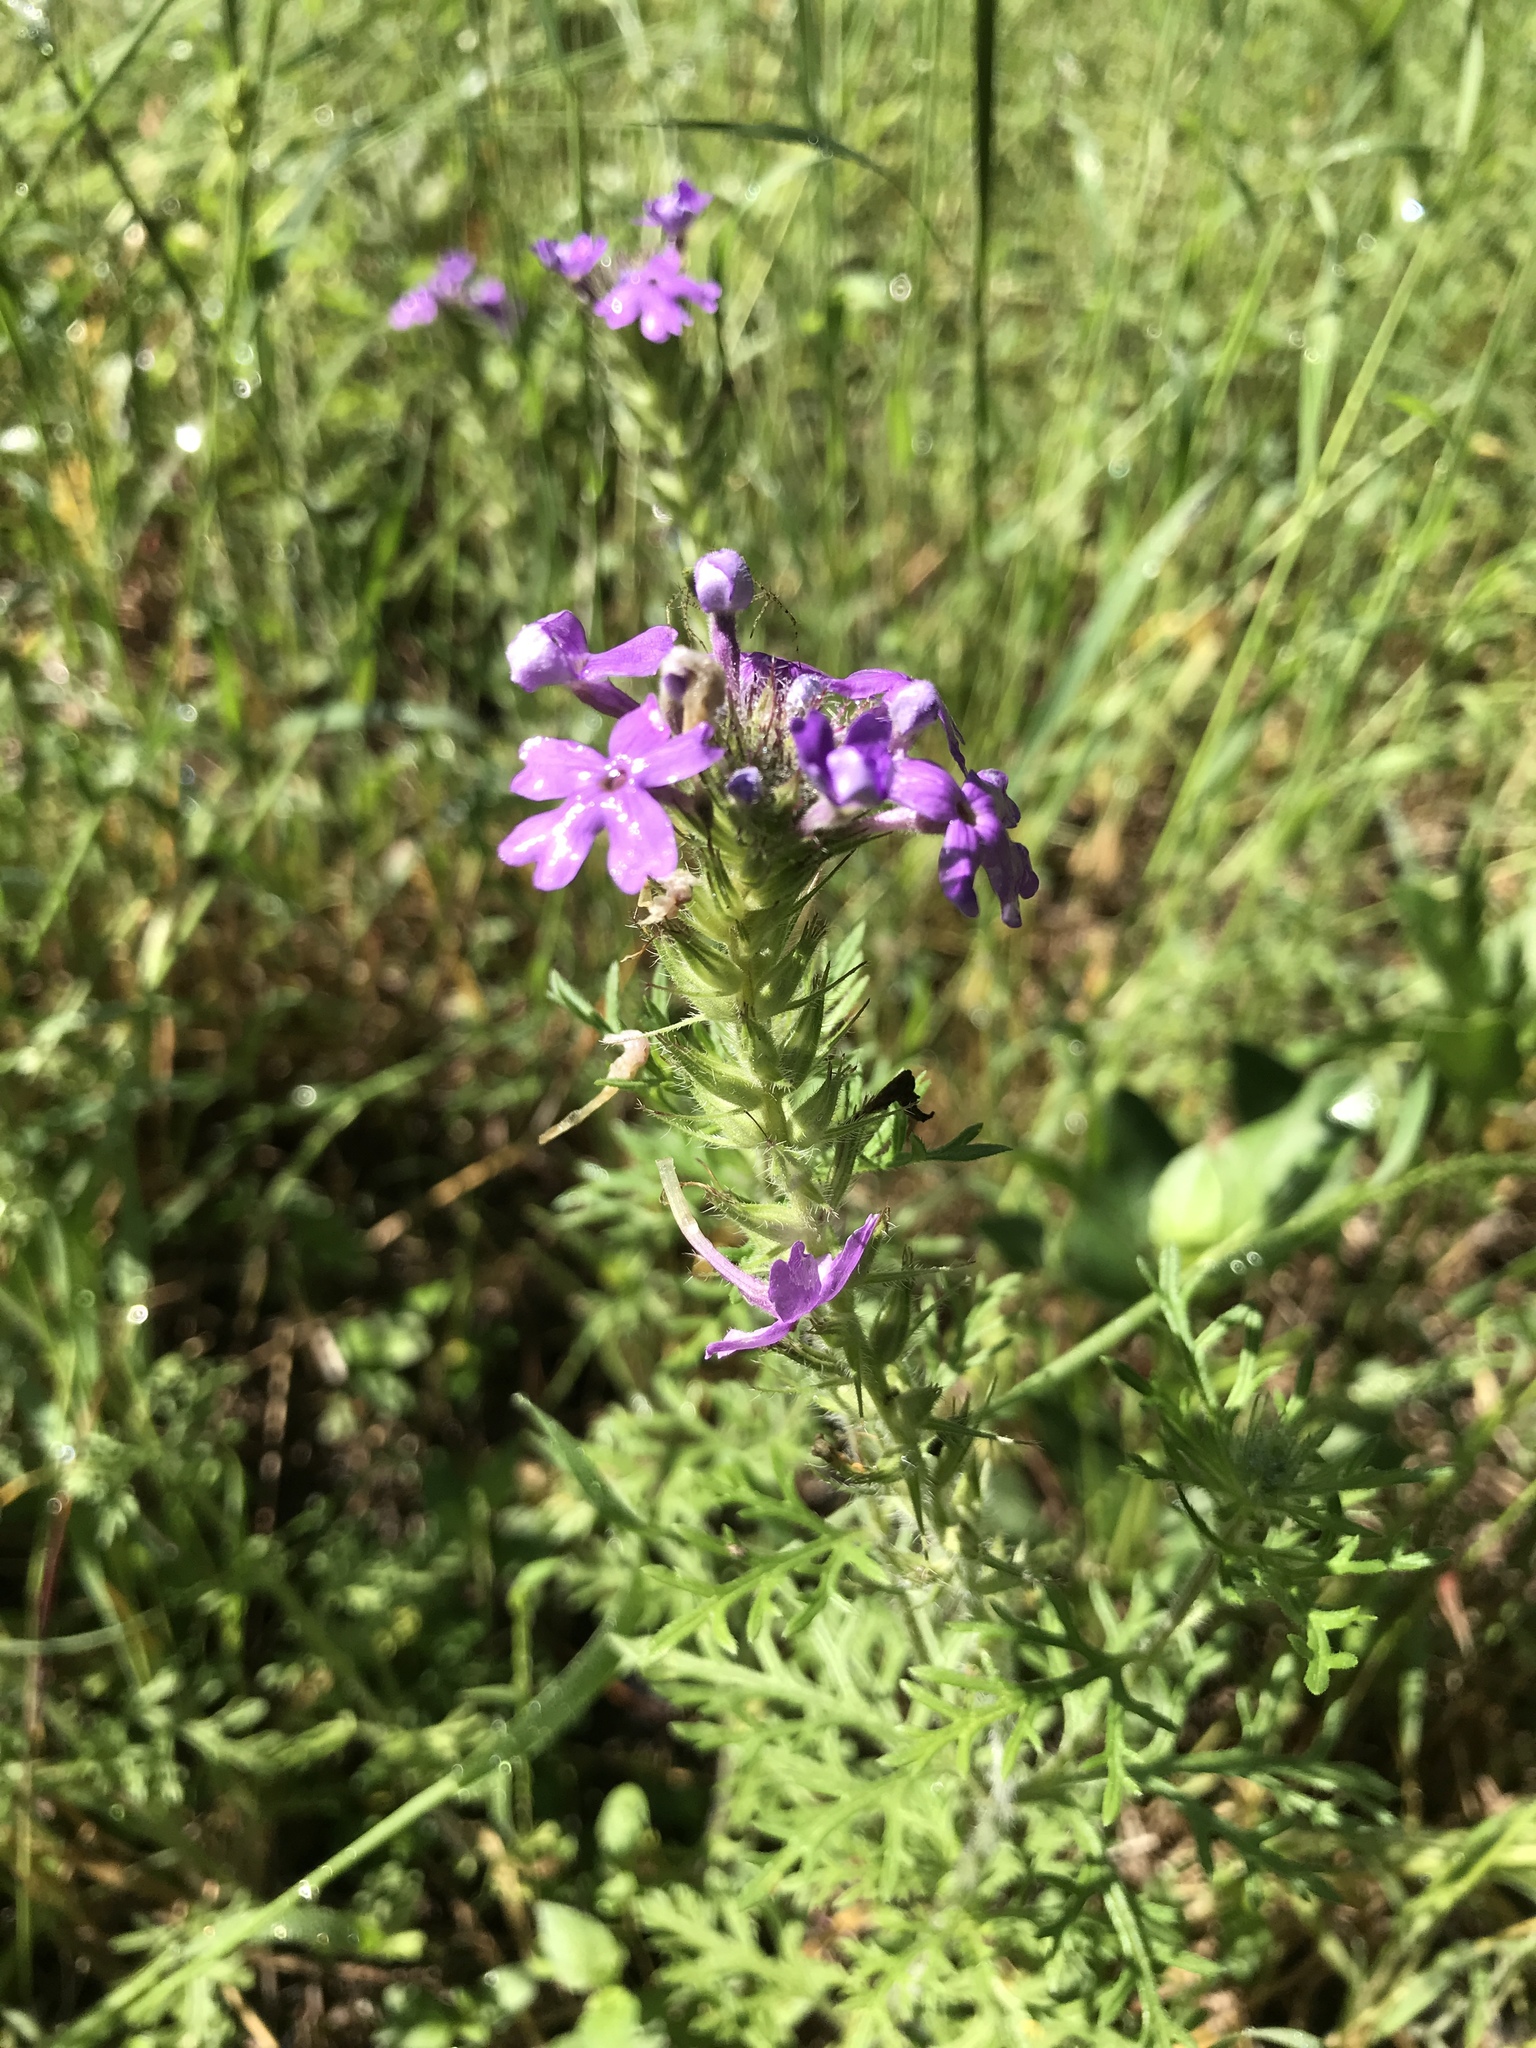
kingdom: Plantae
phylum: Tracheophyta
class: Magnoliopsida
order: Lamiales
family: Verbenaceae
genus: Verbena
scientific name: Verbena bipinnatifida
